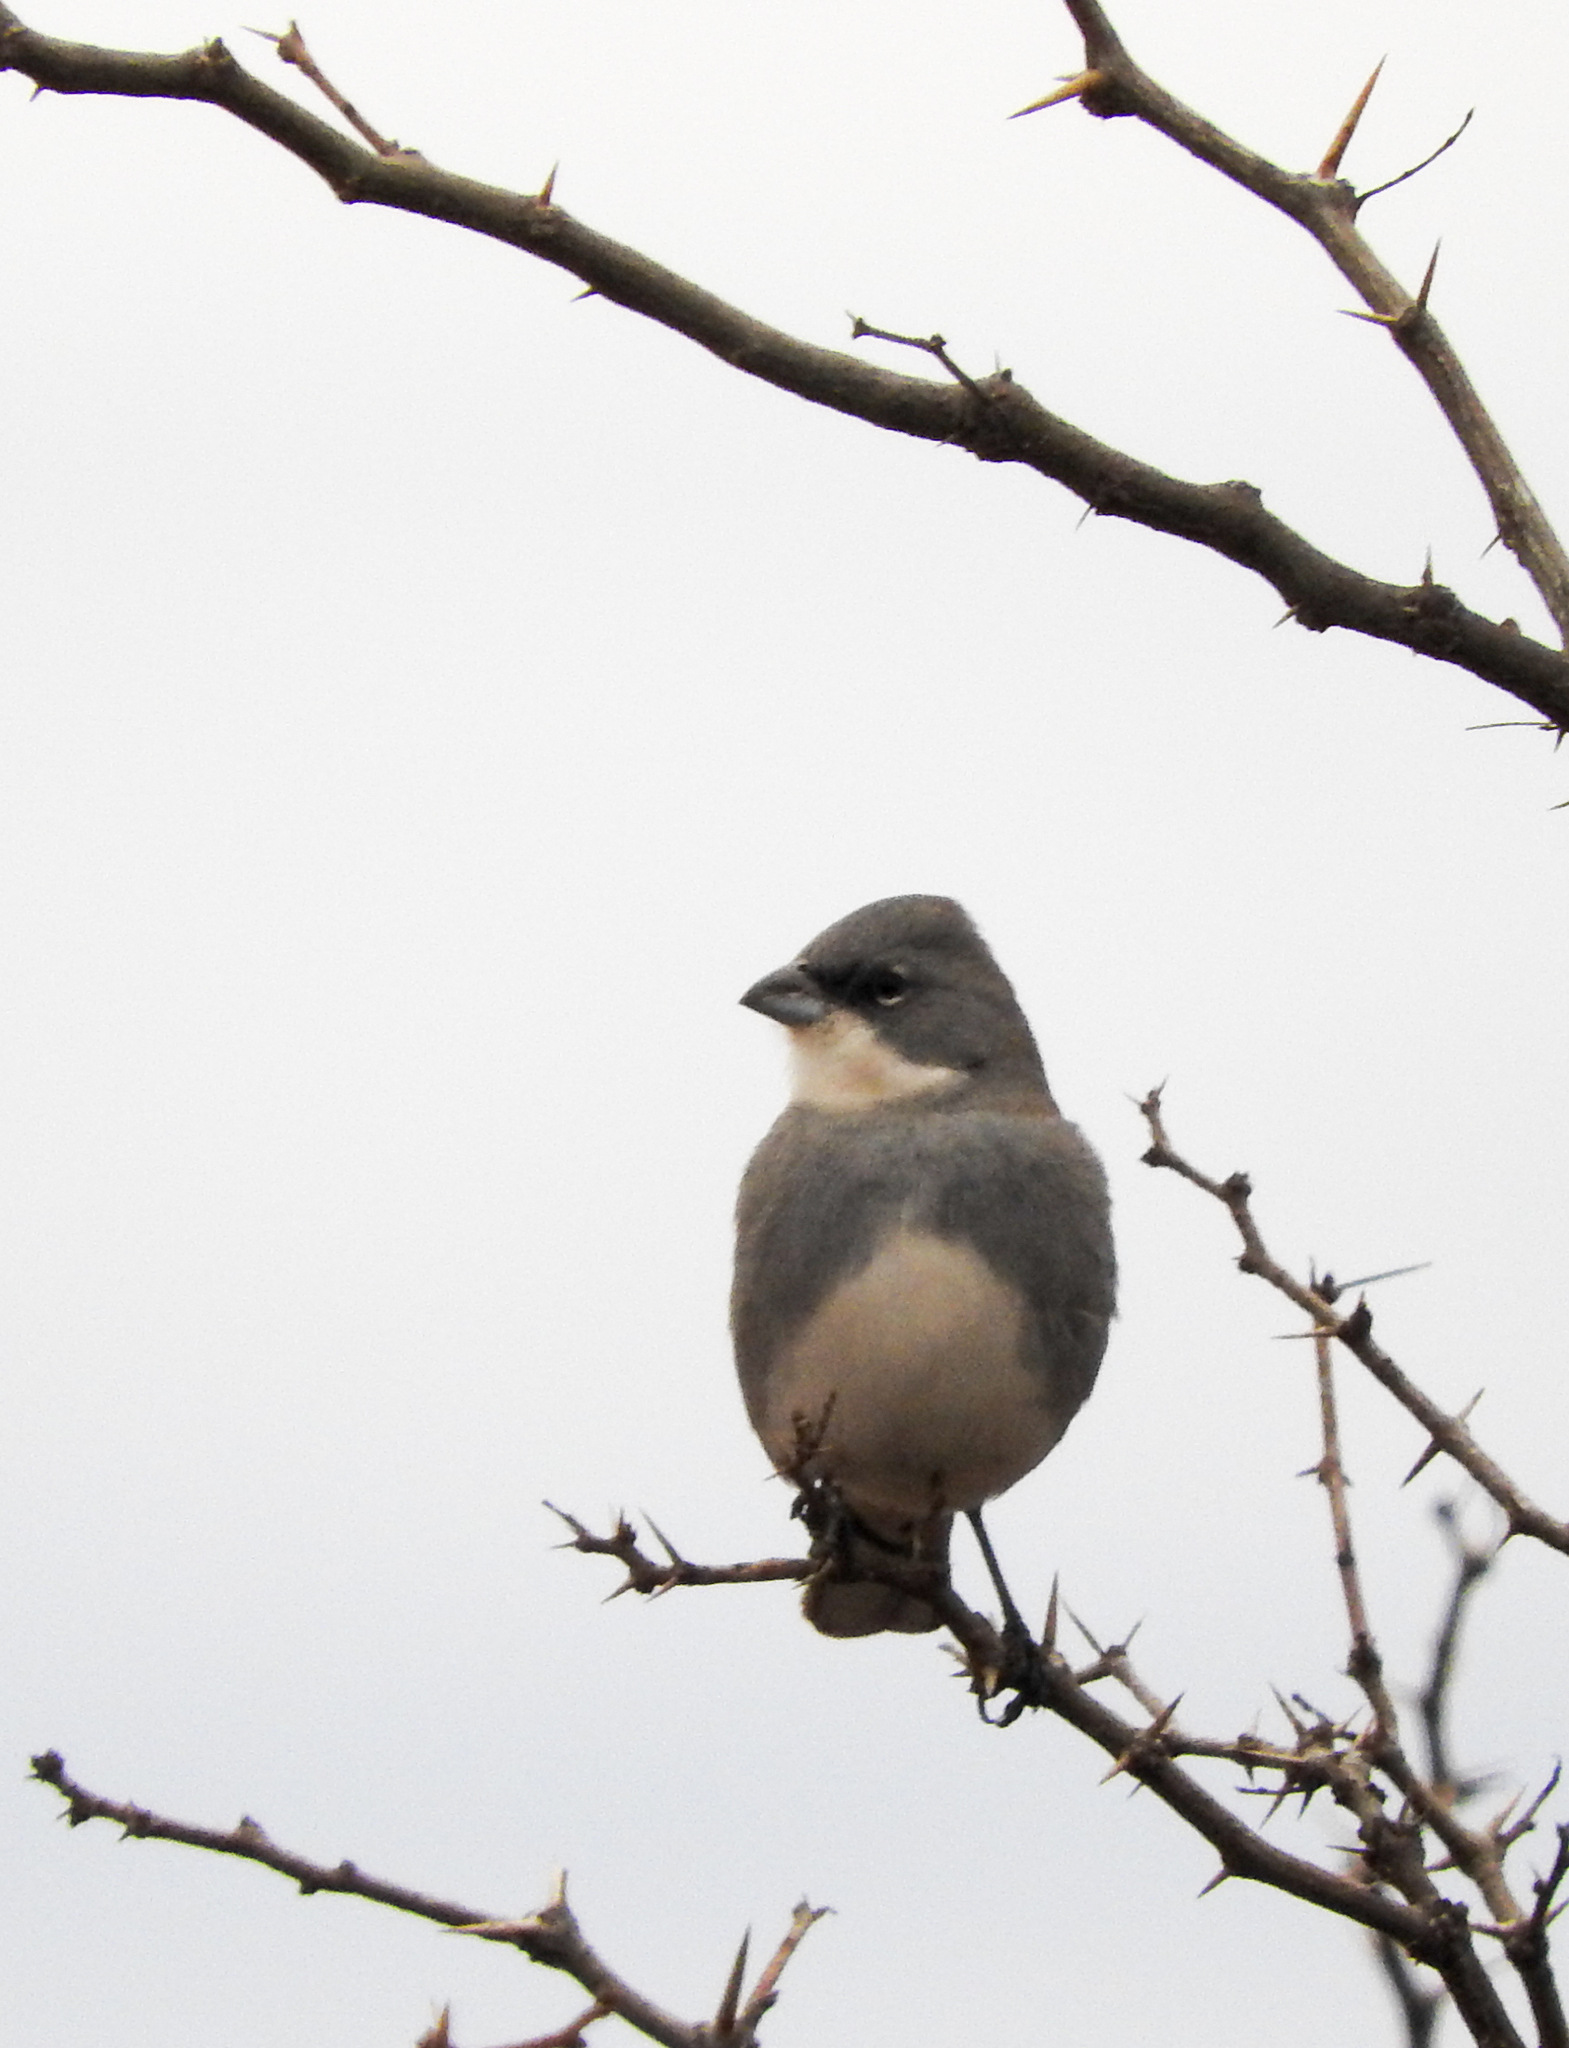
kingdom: Animalia
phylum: Chordata
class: Aves
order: Passeriformes
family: Thraupidae
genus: Diuca
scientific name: Diuca diuca
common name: Common diuca finch
